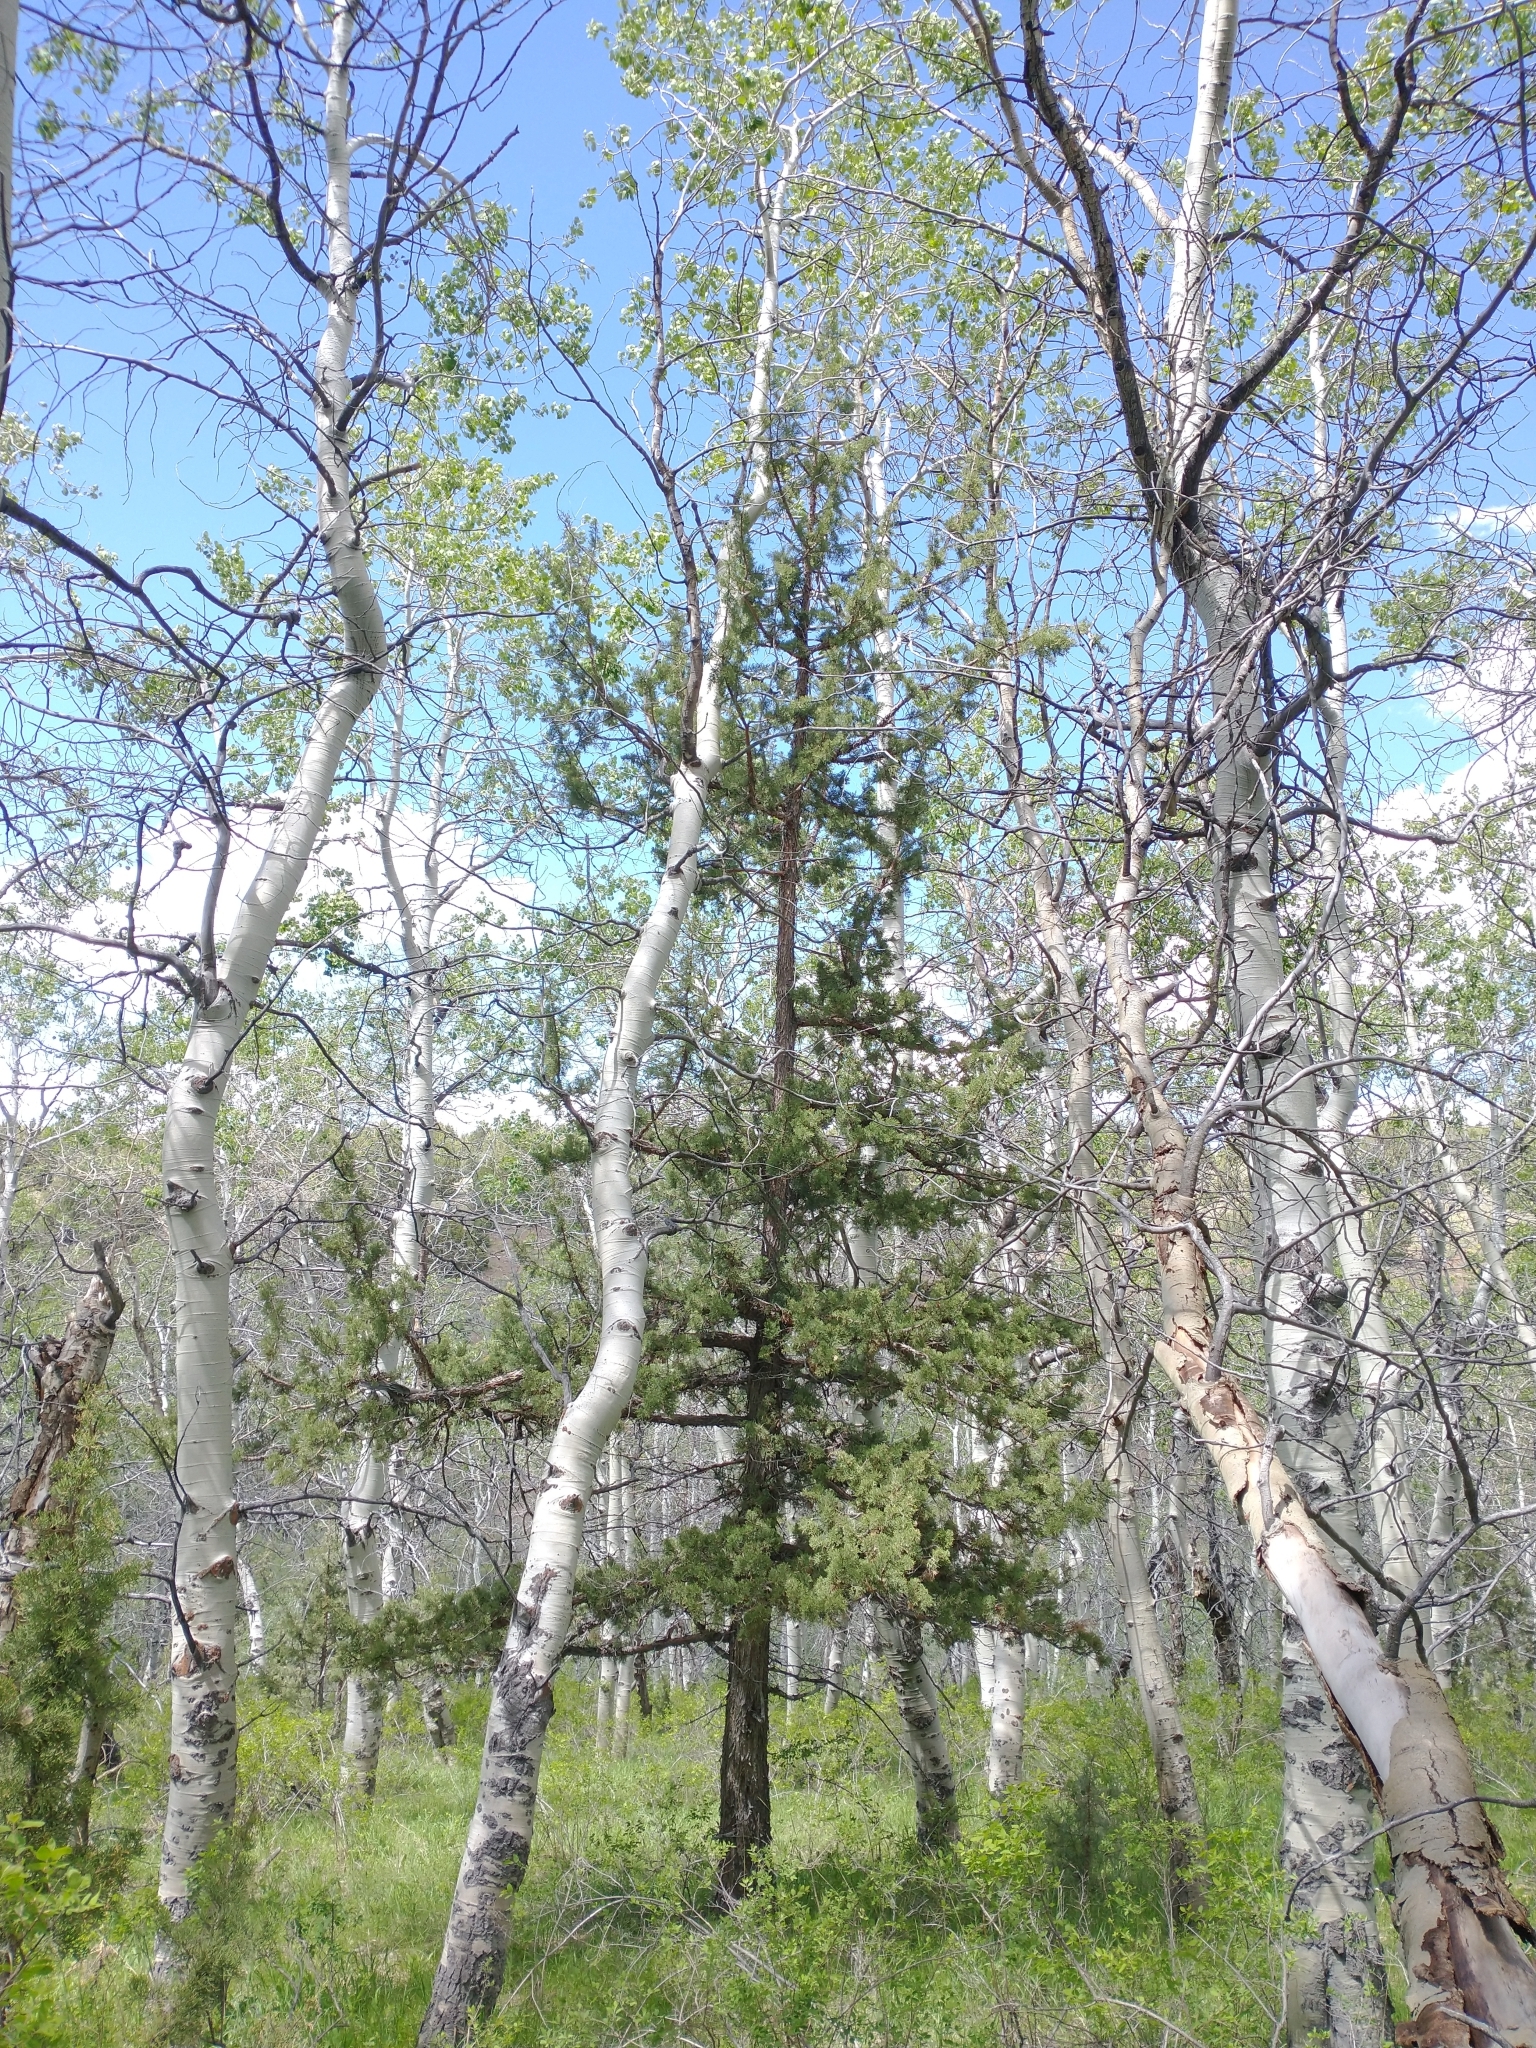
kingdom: Plantae
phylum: Tracheophyta
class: Pinopsida
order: Pinales
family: Cupressaceae
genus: Juniperus
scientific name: Juniperus occidentalis
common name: Western juniper
